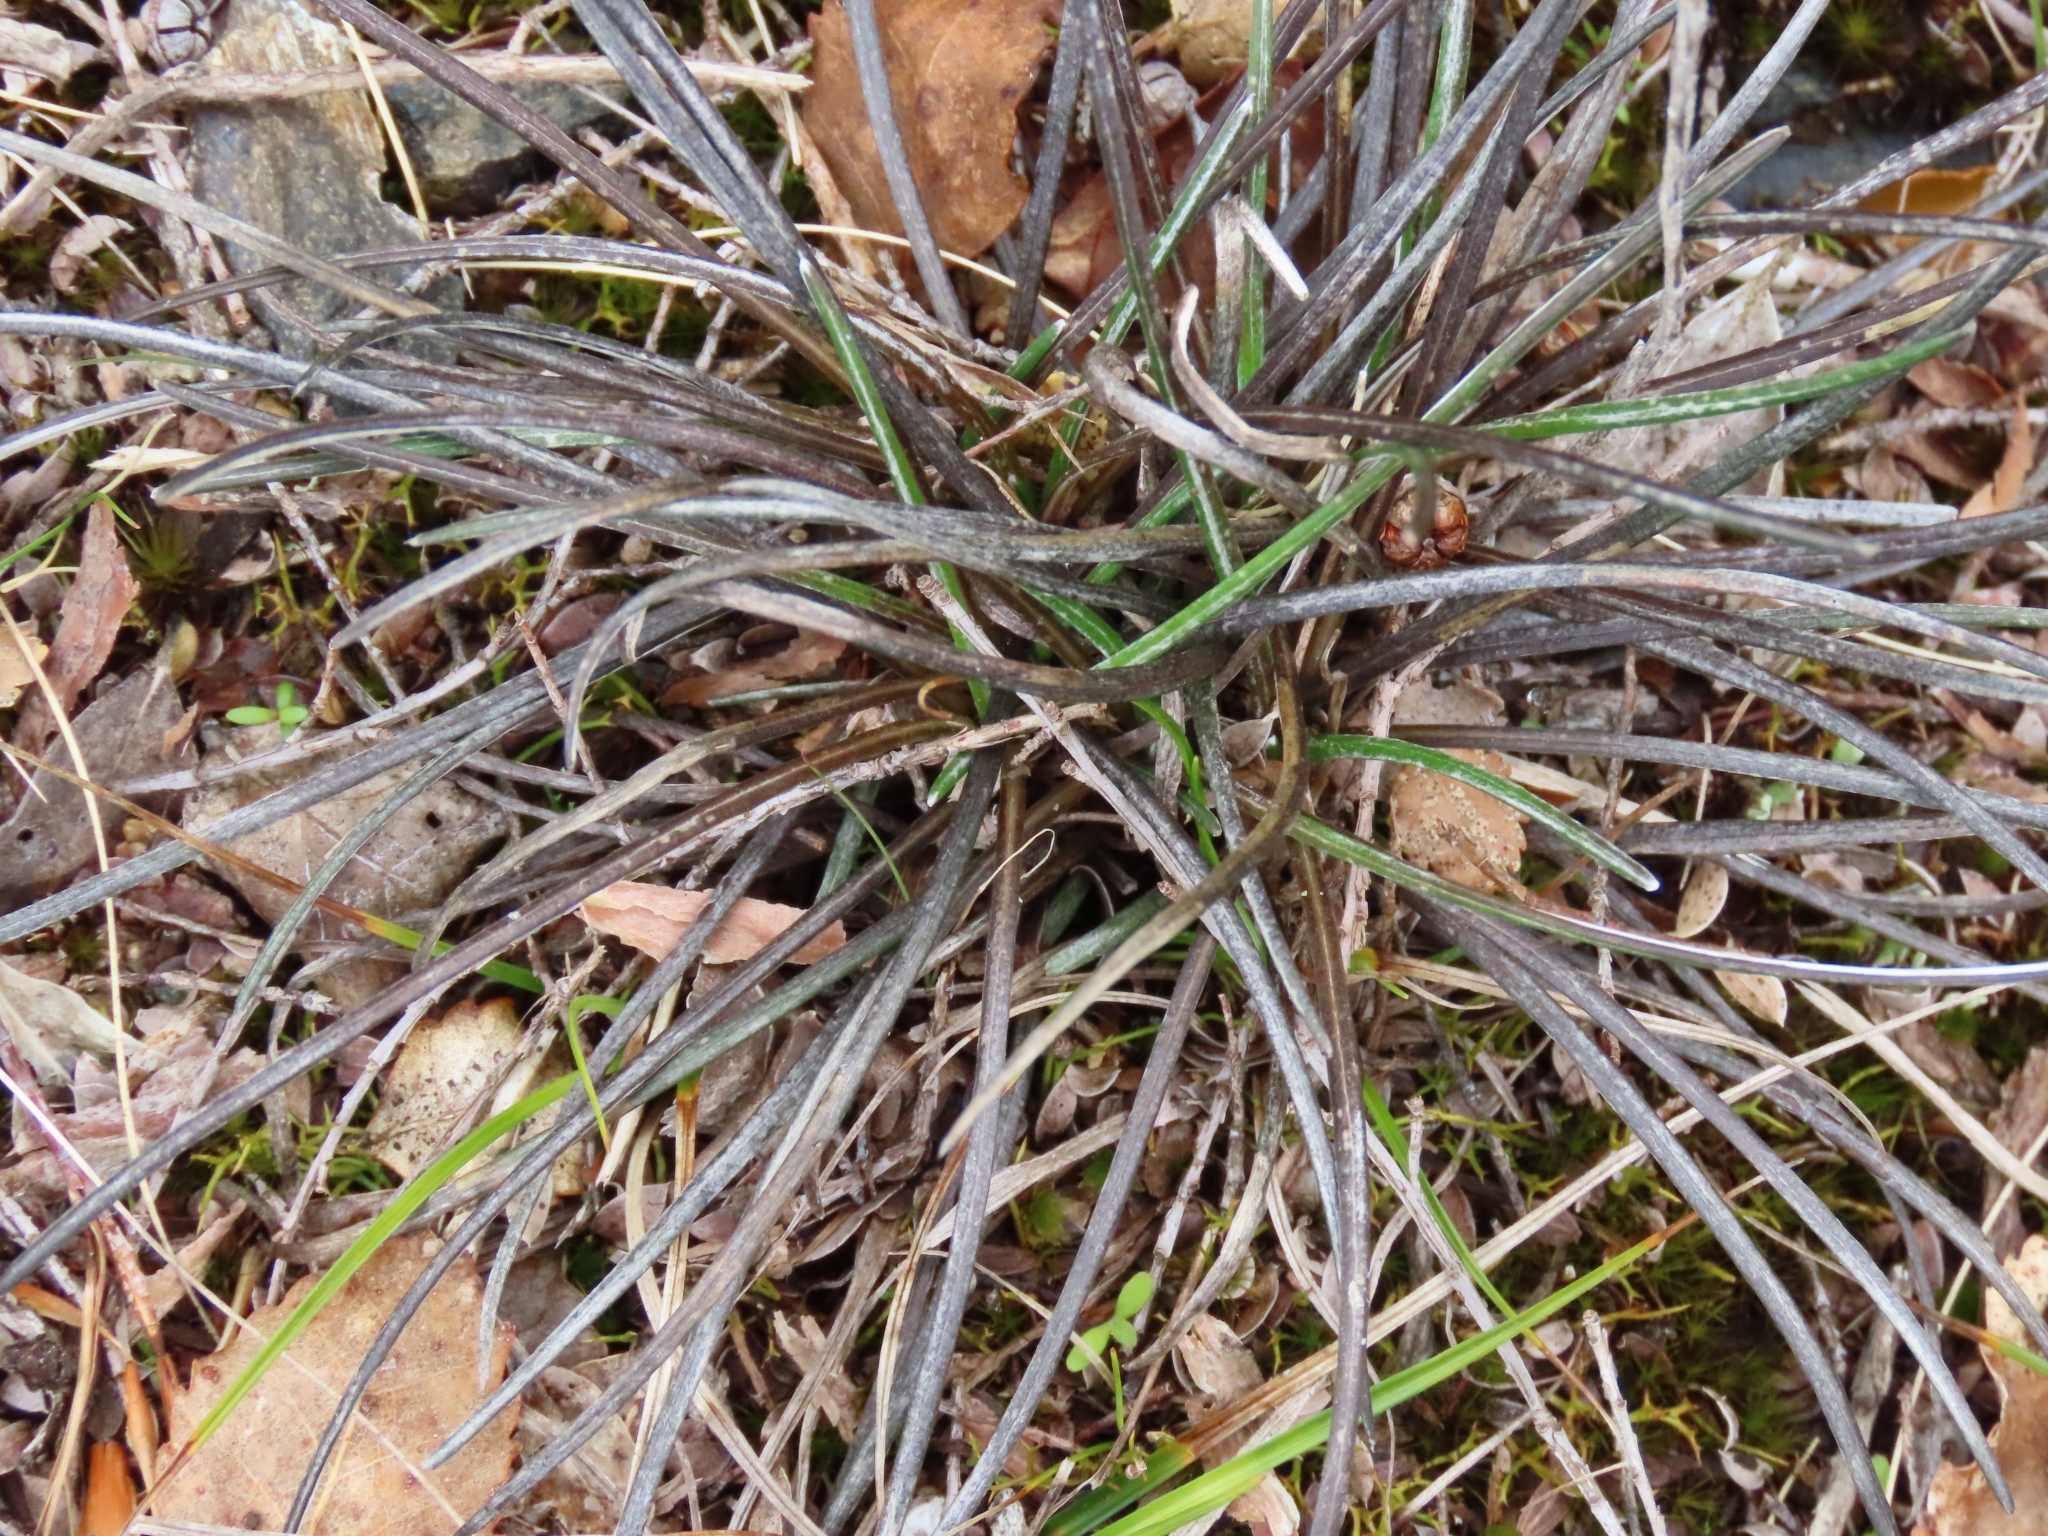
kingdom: Plantae
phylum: Tracheophyta
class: Magnoliopsida
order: Asterales
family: Asteraceae
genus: Celmisia
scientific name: Celmisia gracilenta
